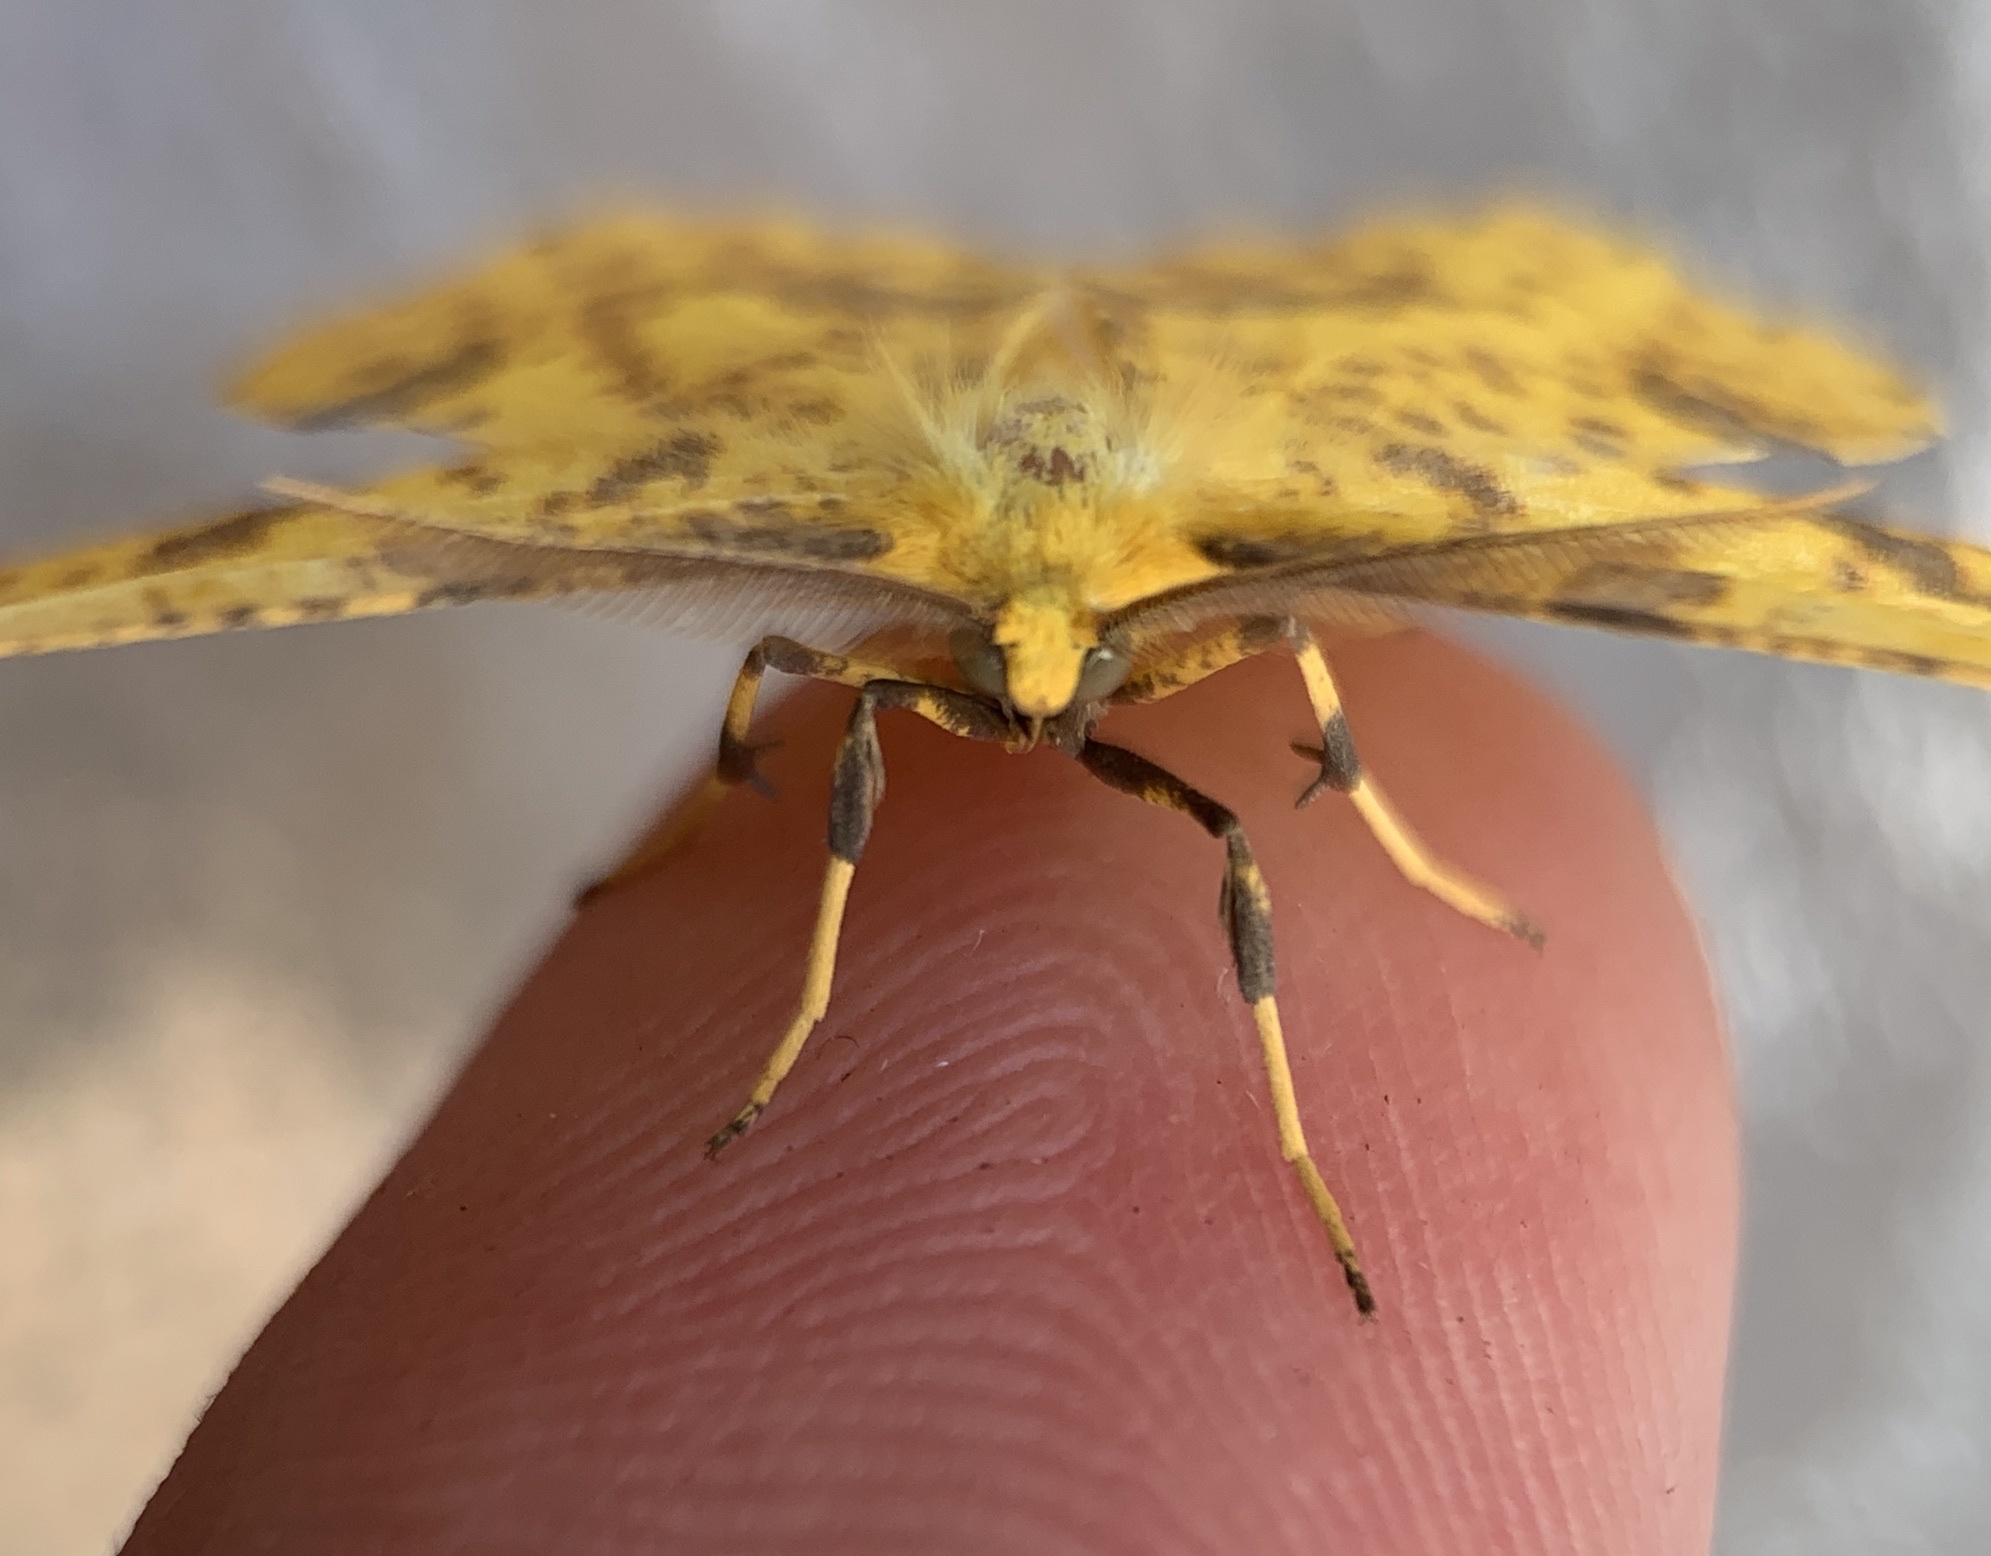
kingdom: Animalia
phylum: Arthropoda
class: Insecta
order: Lepidoptera
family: Geometridae
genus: Xanthotype
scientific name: Xanthotype
